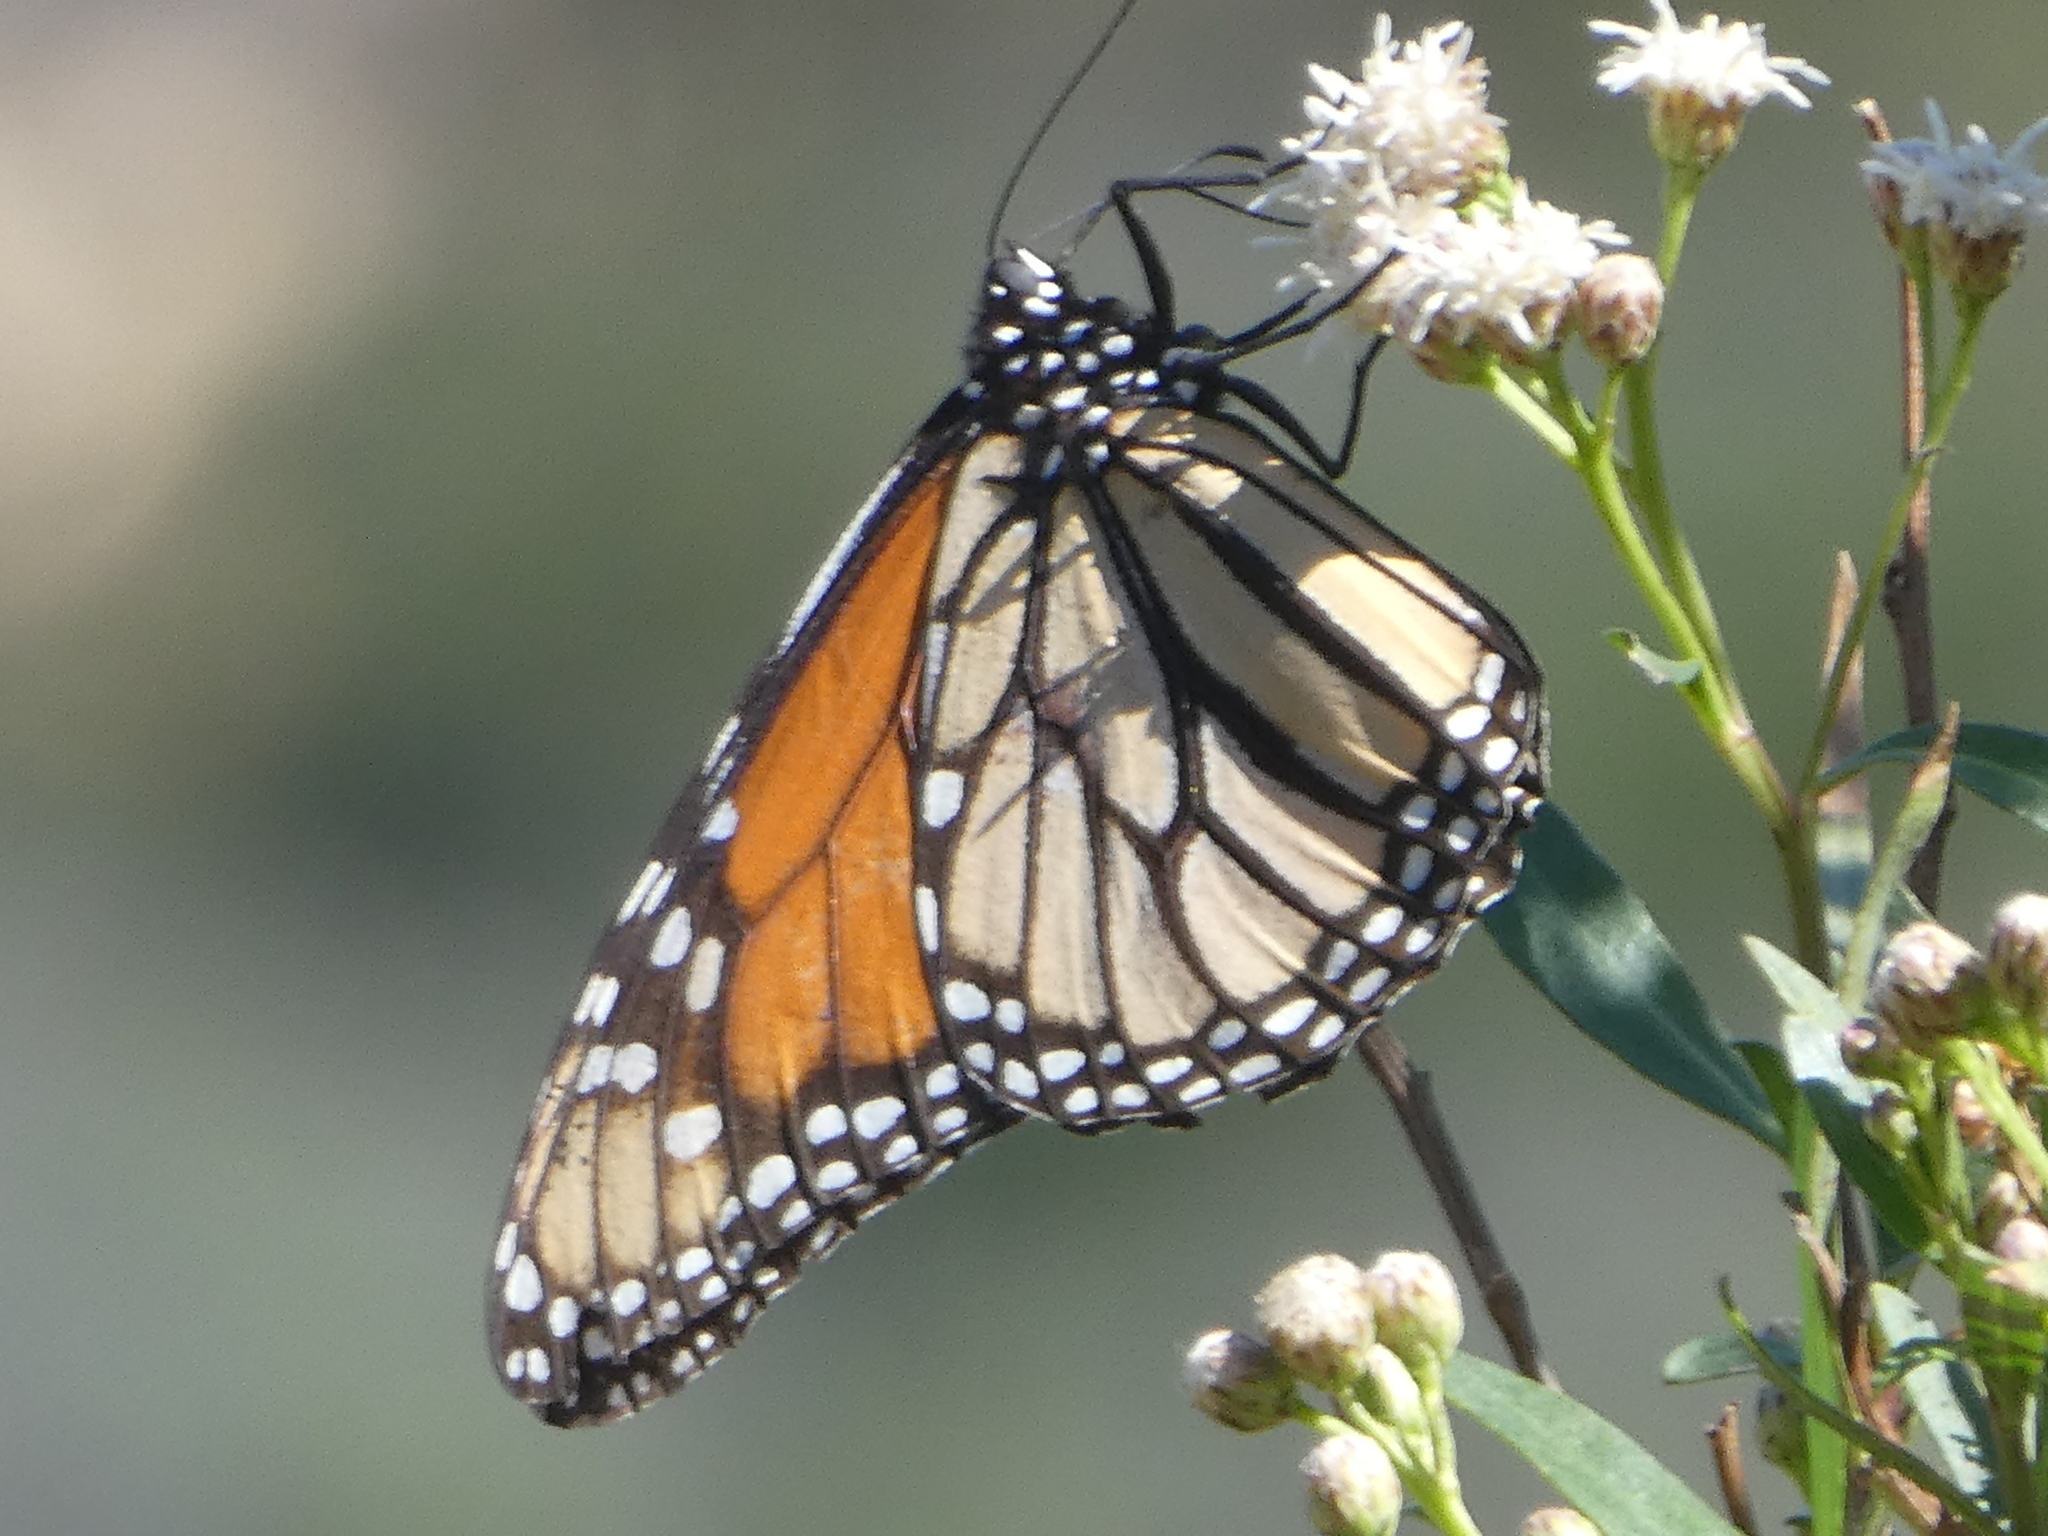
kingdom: Animalia
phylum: Arthropoda
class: Insecta
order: Lepidoptera
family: Nymphalidae
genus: Danaus
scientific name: Danaus plexippus
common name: Monarch
